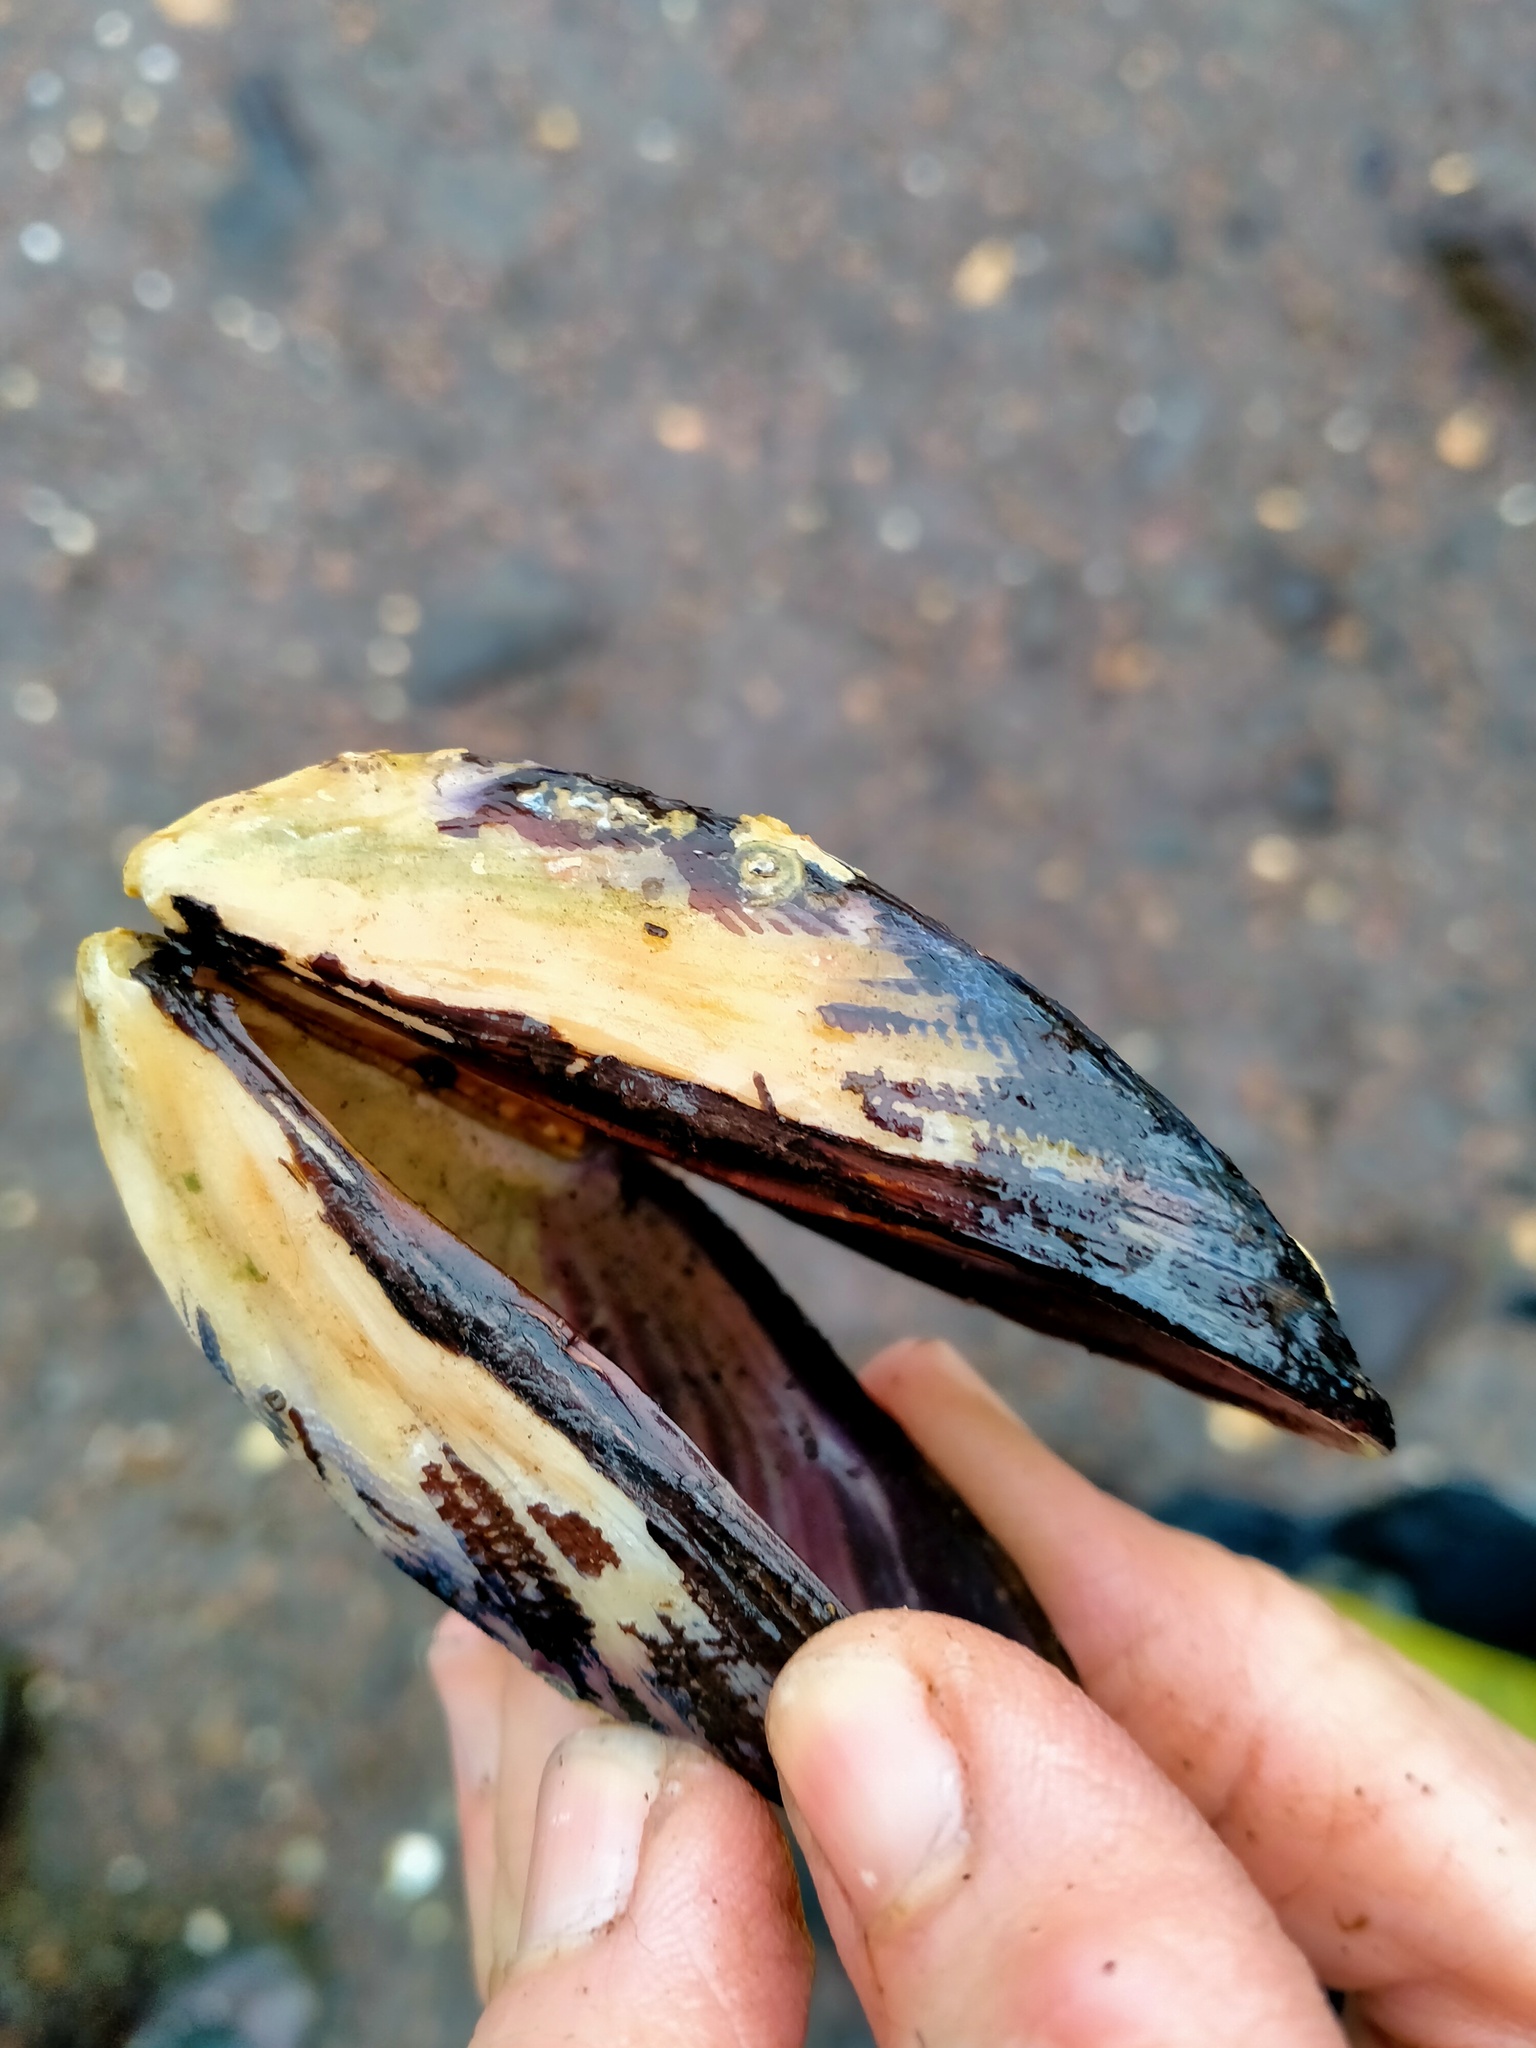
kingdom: Animalia
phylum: Mollusca
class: Bivalvia
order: Mytilida
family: Mytilidae
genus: Aulacomya
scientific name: Aulacomya maoriana
